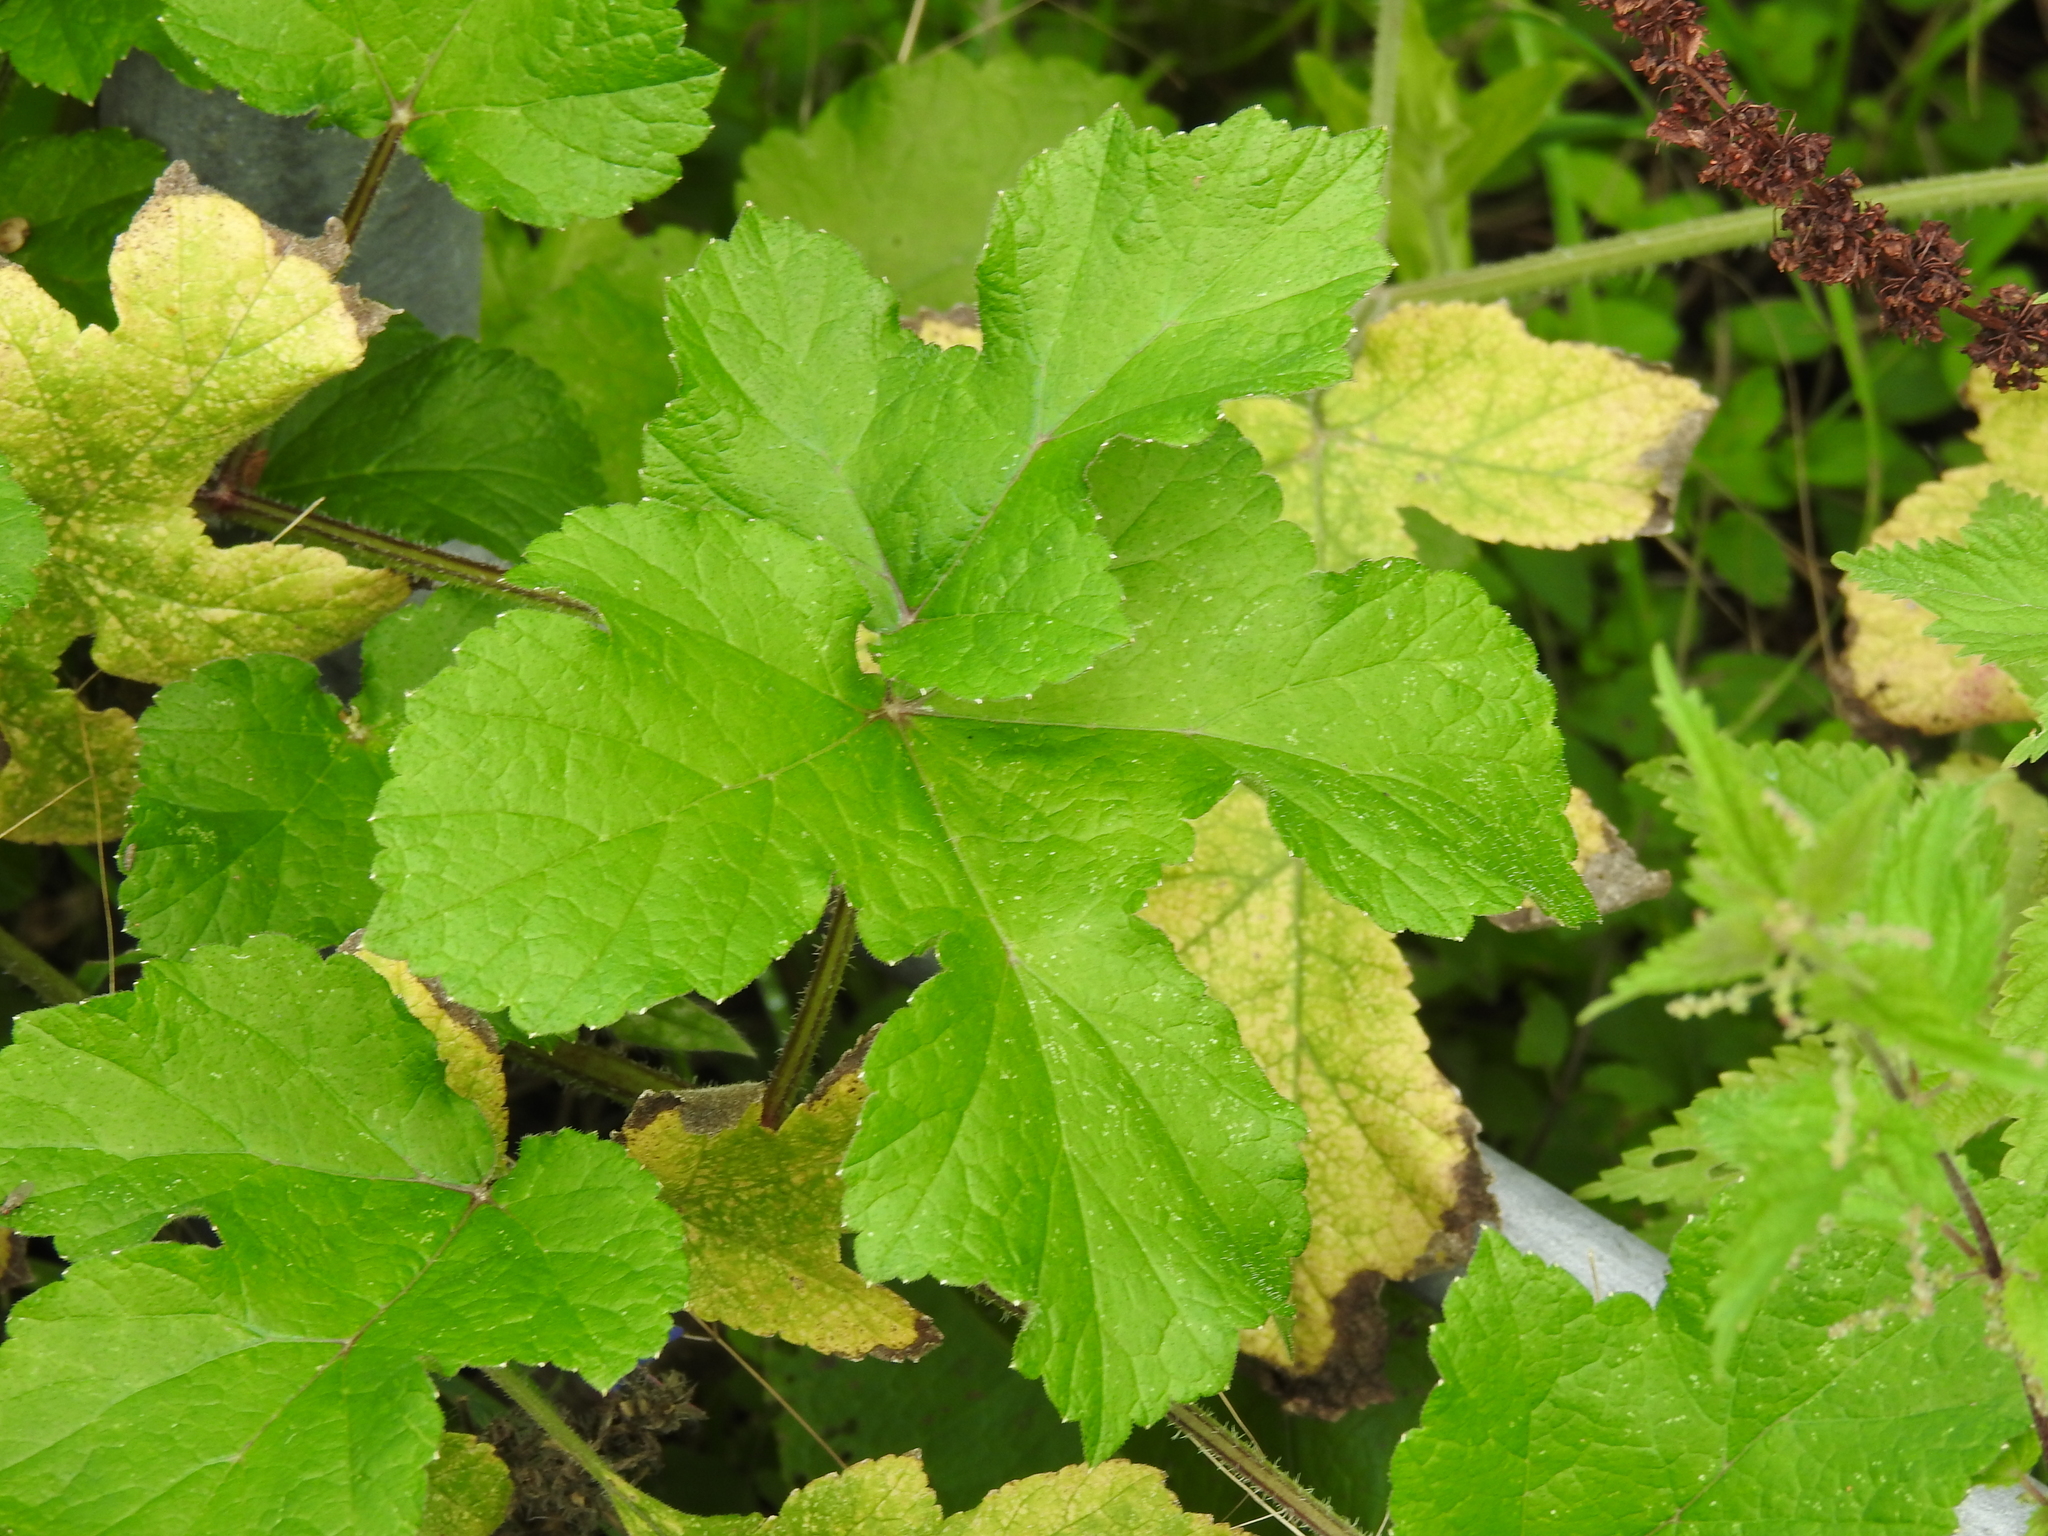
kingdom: Plantae
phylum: Tracheophyta
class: Magnoliopsida
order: Apiales
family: Apiaceae
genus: Heracleum
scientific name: Heracleum sphondylium
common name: Hogweed
